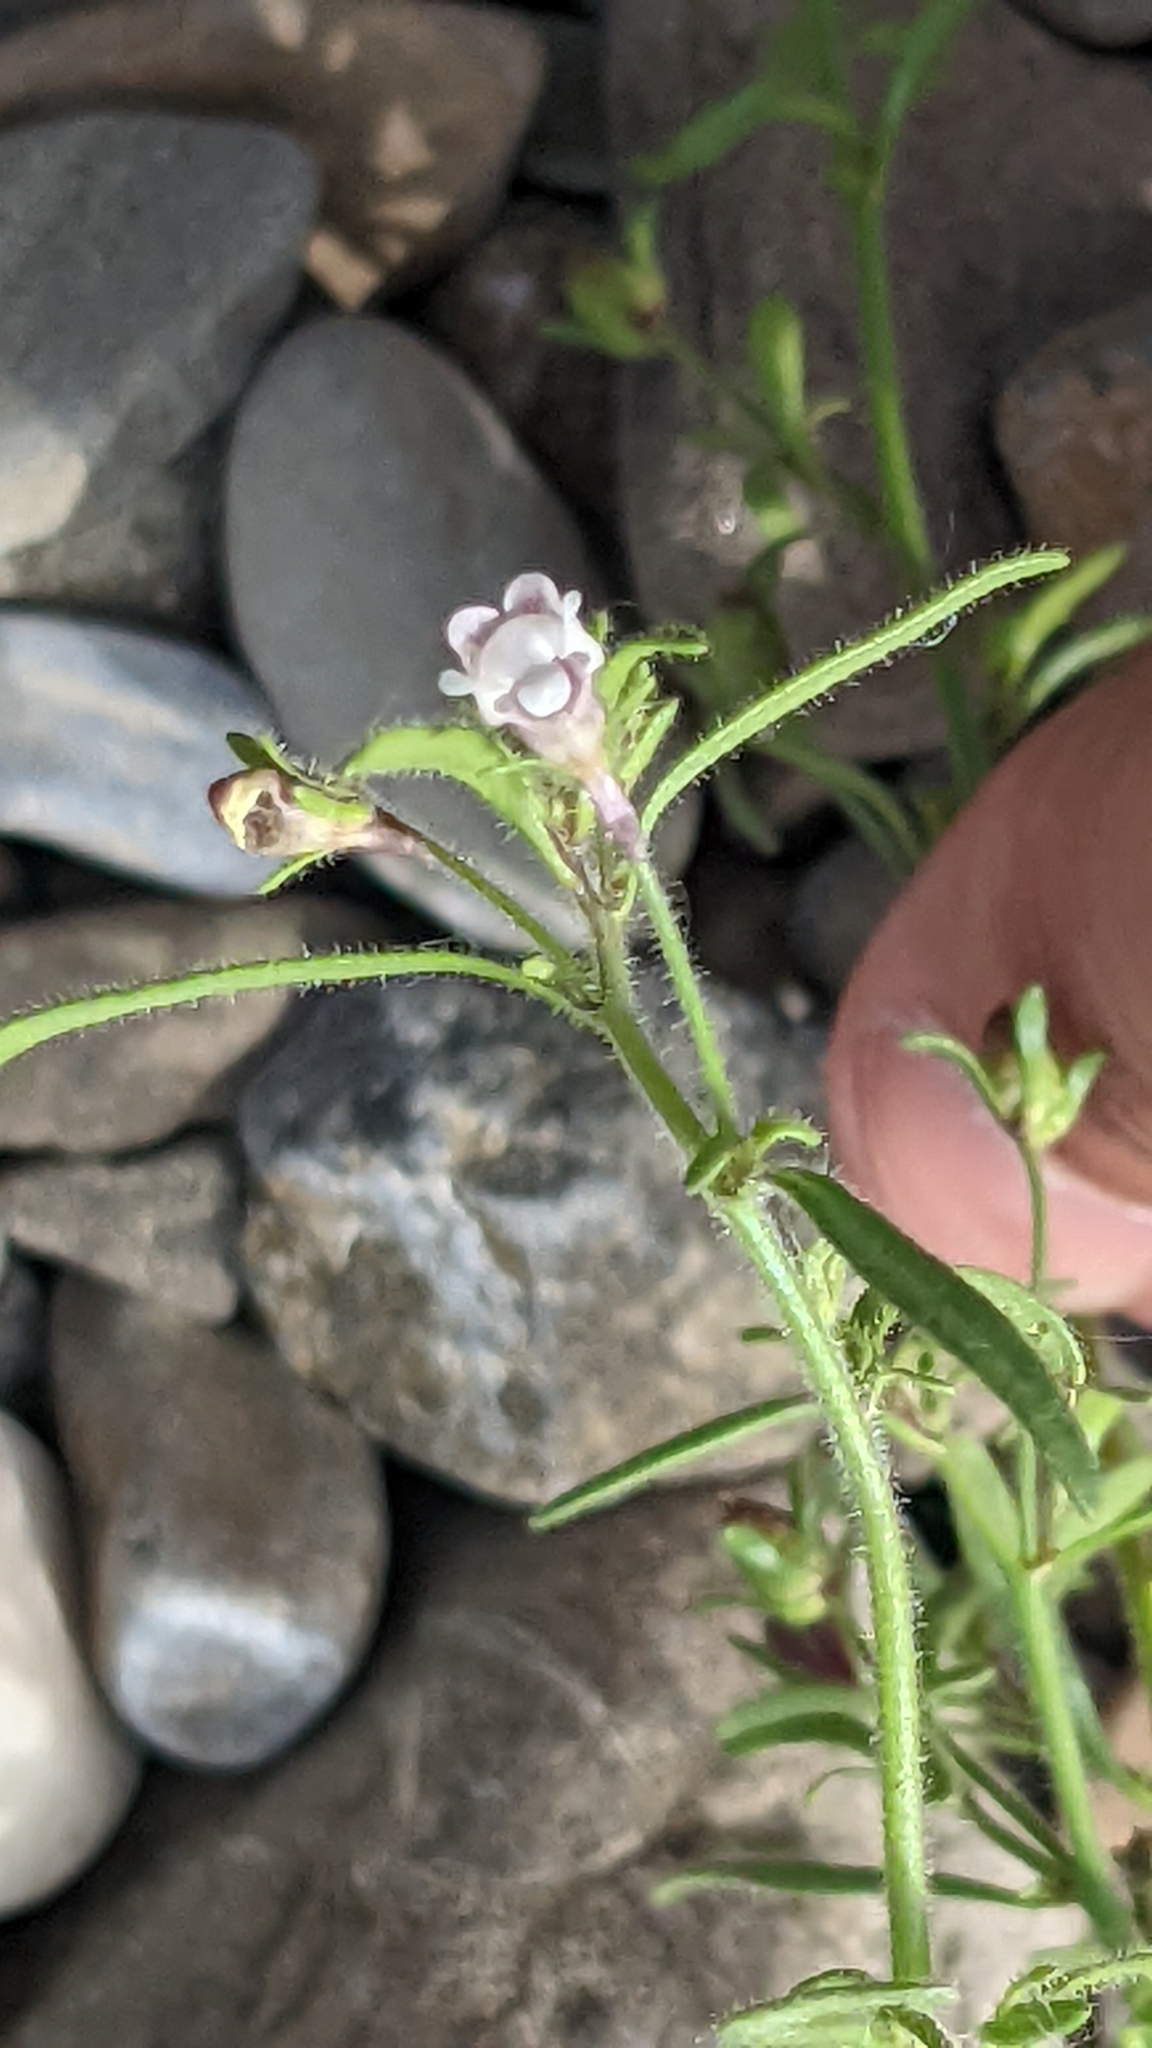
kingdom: Plantae
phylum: Tracheophyta
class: Magnoliopsida
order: Lamiales
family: Plantaginaceae
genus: Chaenorhinum
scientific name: Chaenorhinum minus
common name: Dwarf snapdragon
